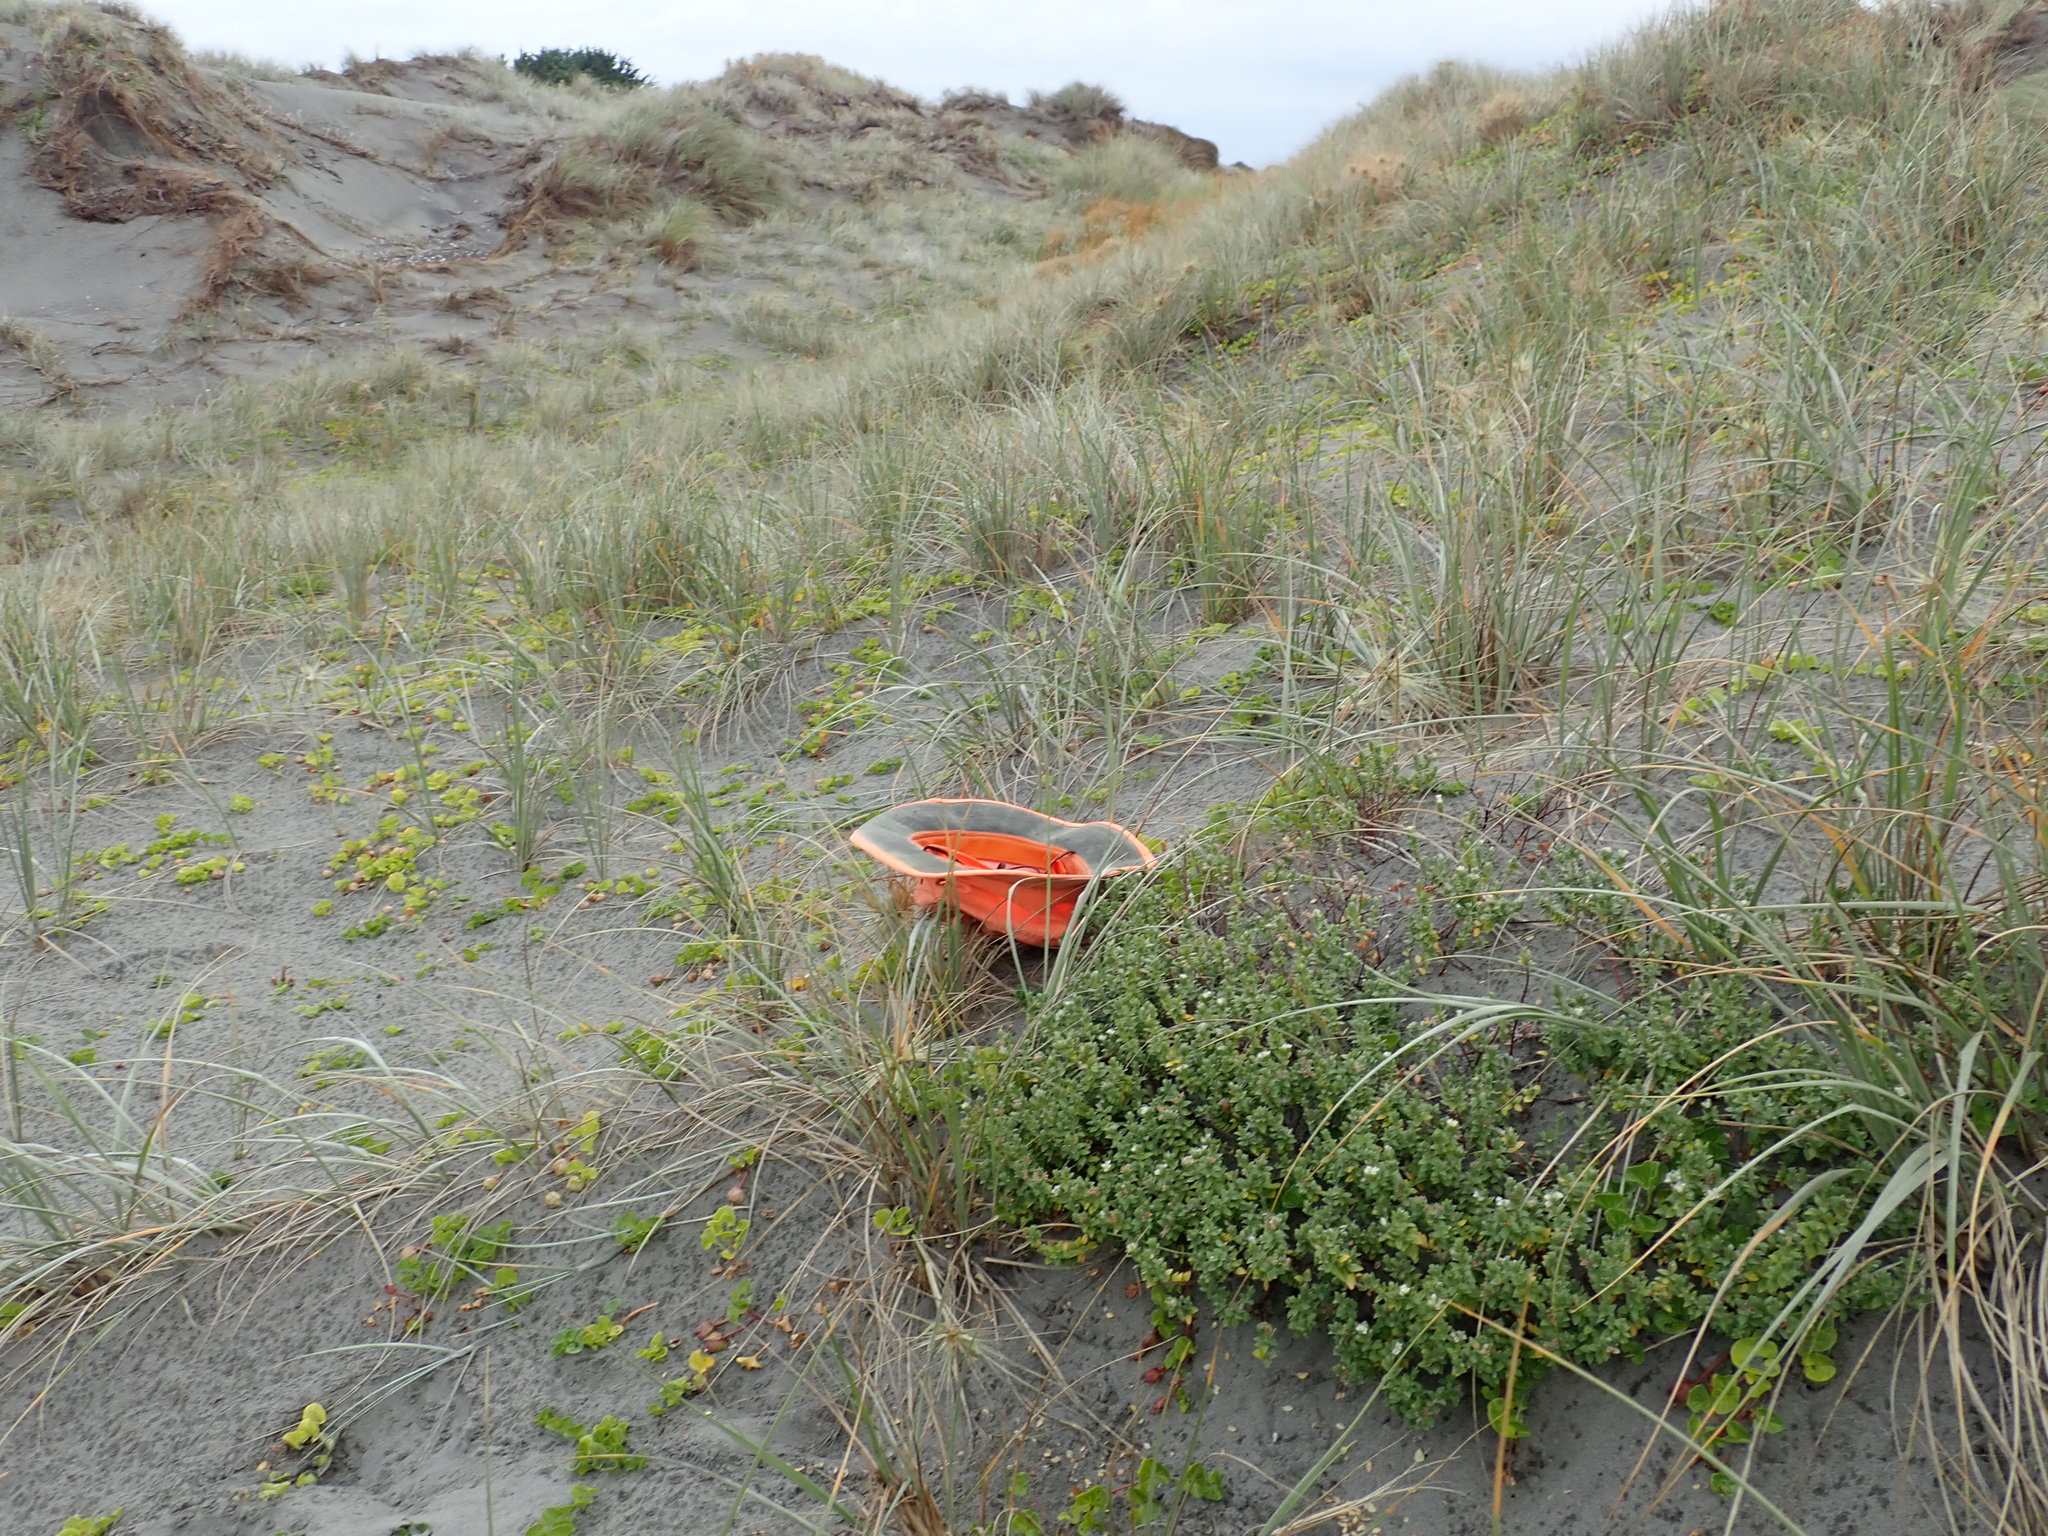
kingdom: Plantae
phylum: Tracheophyta
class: Magnoliopsida
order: Malvales
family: Thymelaeaceae
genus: Pimelea
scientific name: Pimelea villosa
